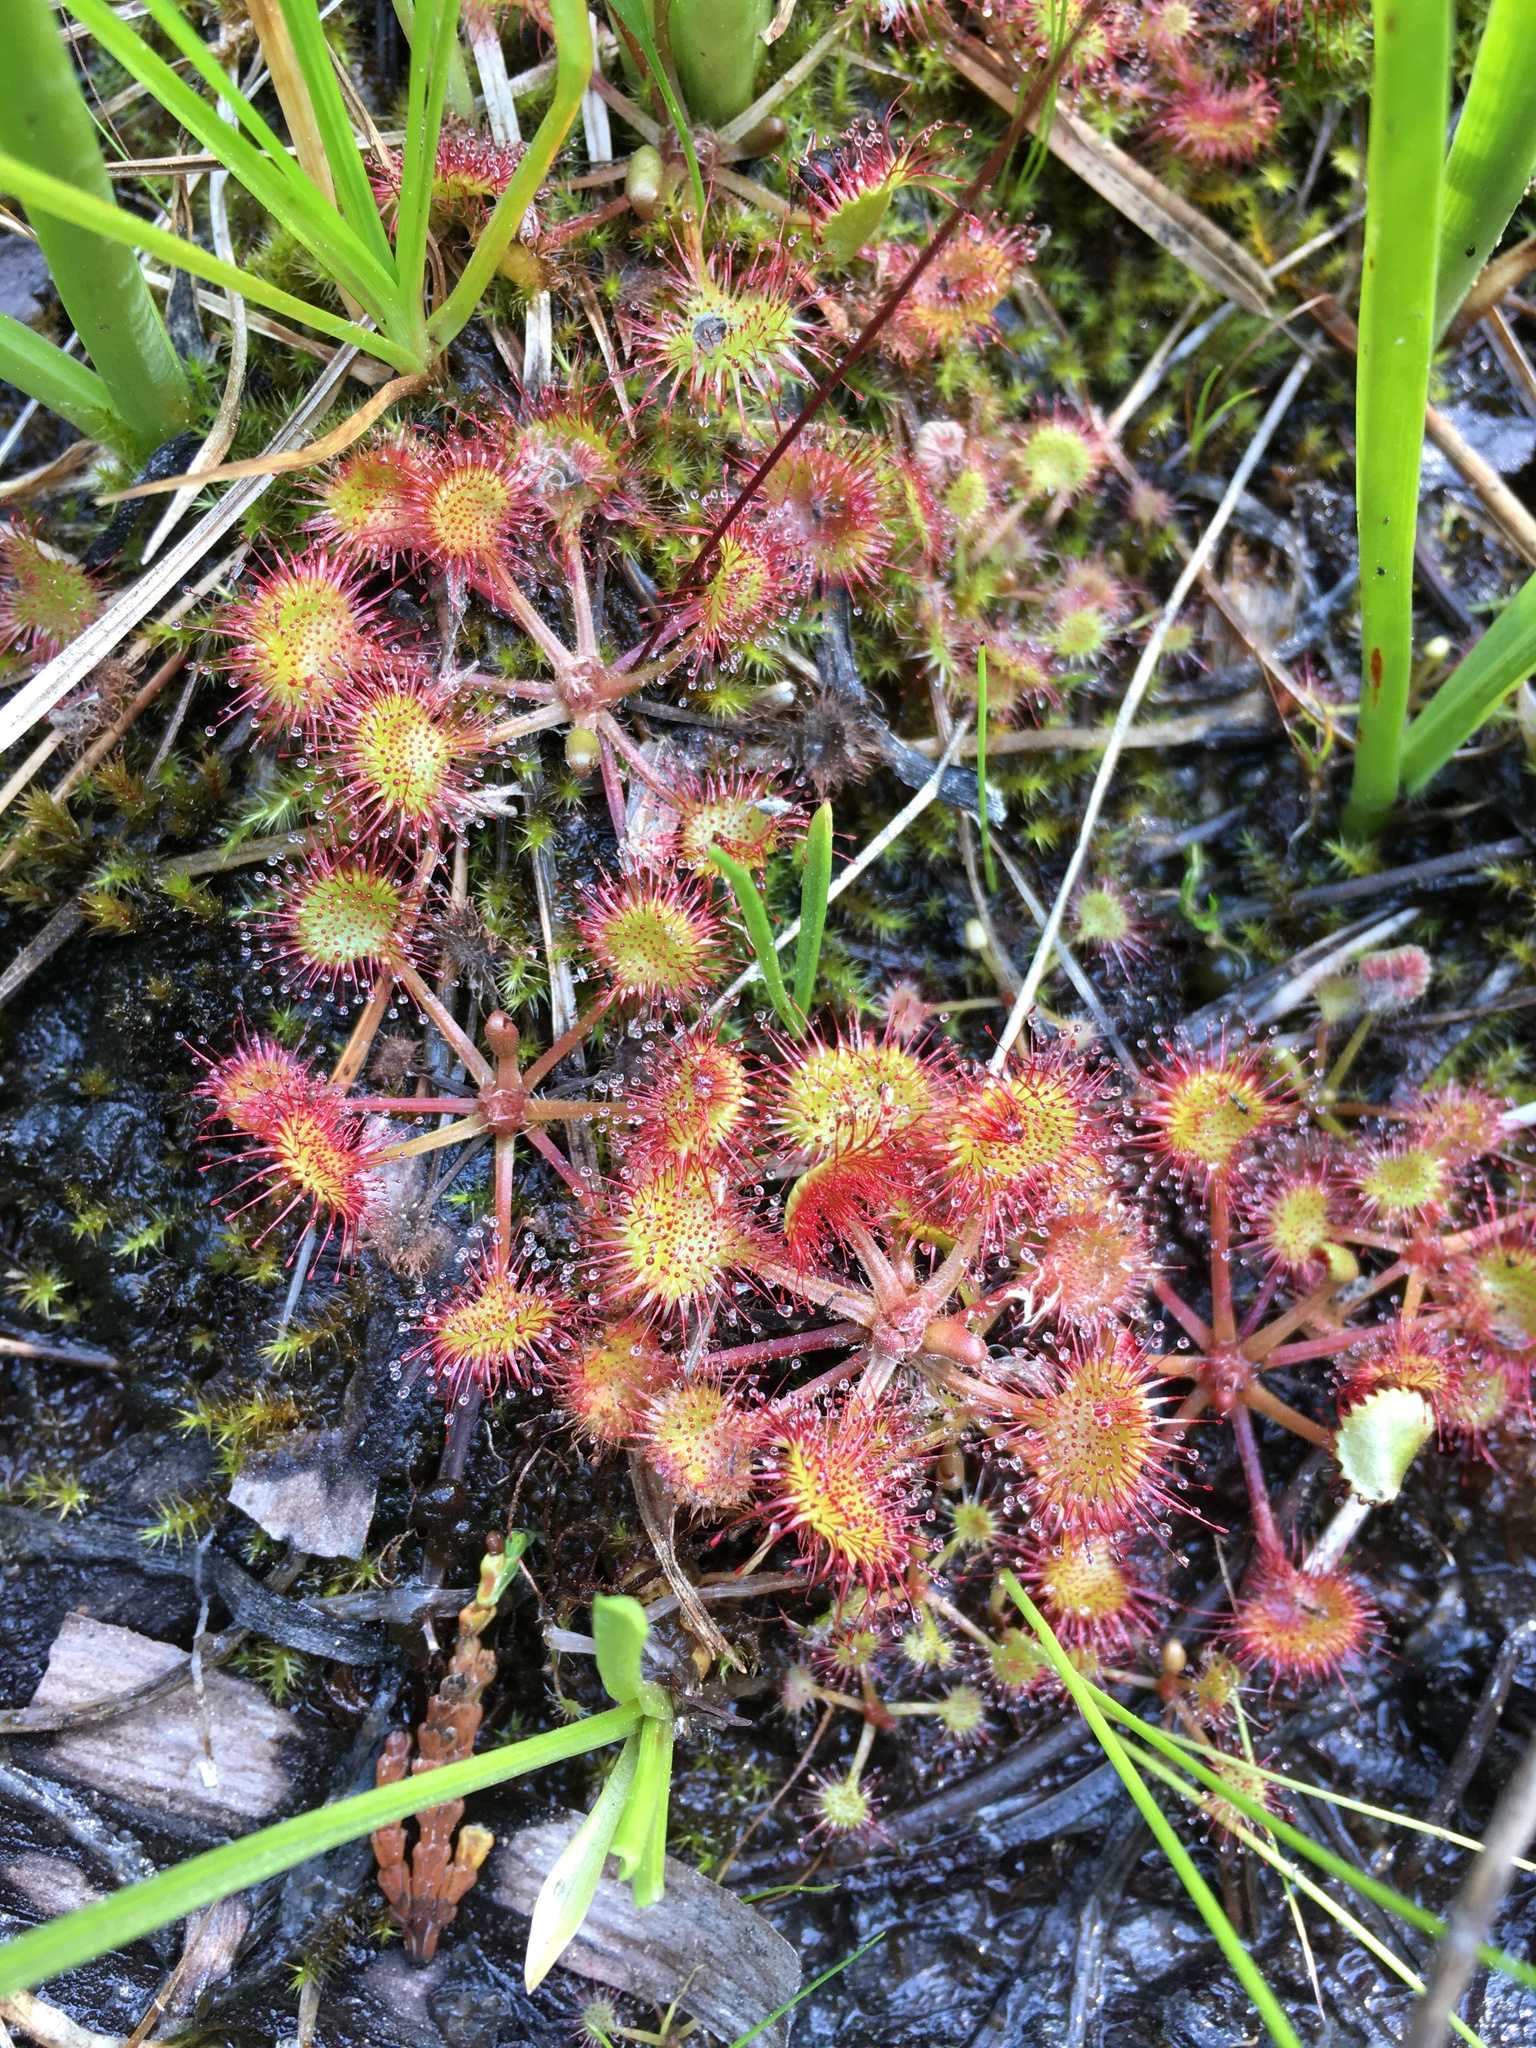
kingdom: Plantae
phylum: Tracheophyta
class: Magnoliopsida
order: Caryophyllales
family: Droseraceae
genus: Drosera
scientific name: Drosera rotundifolia
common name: Round-leaved sundew
